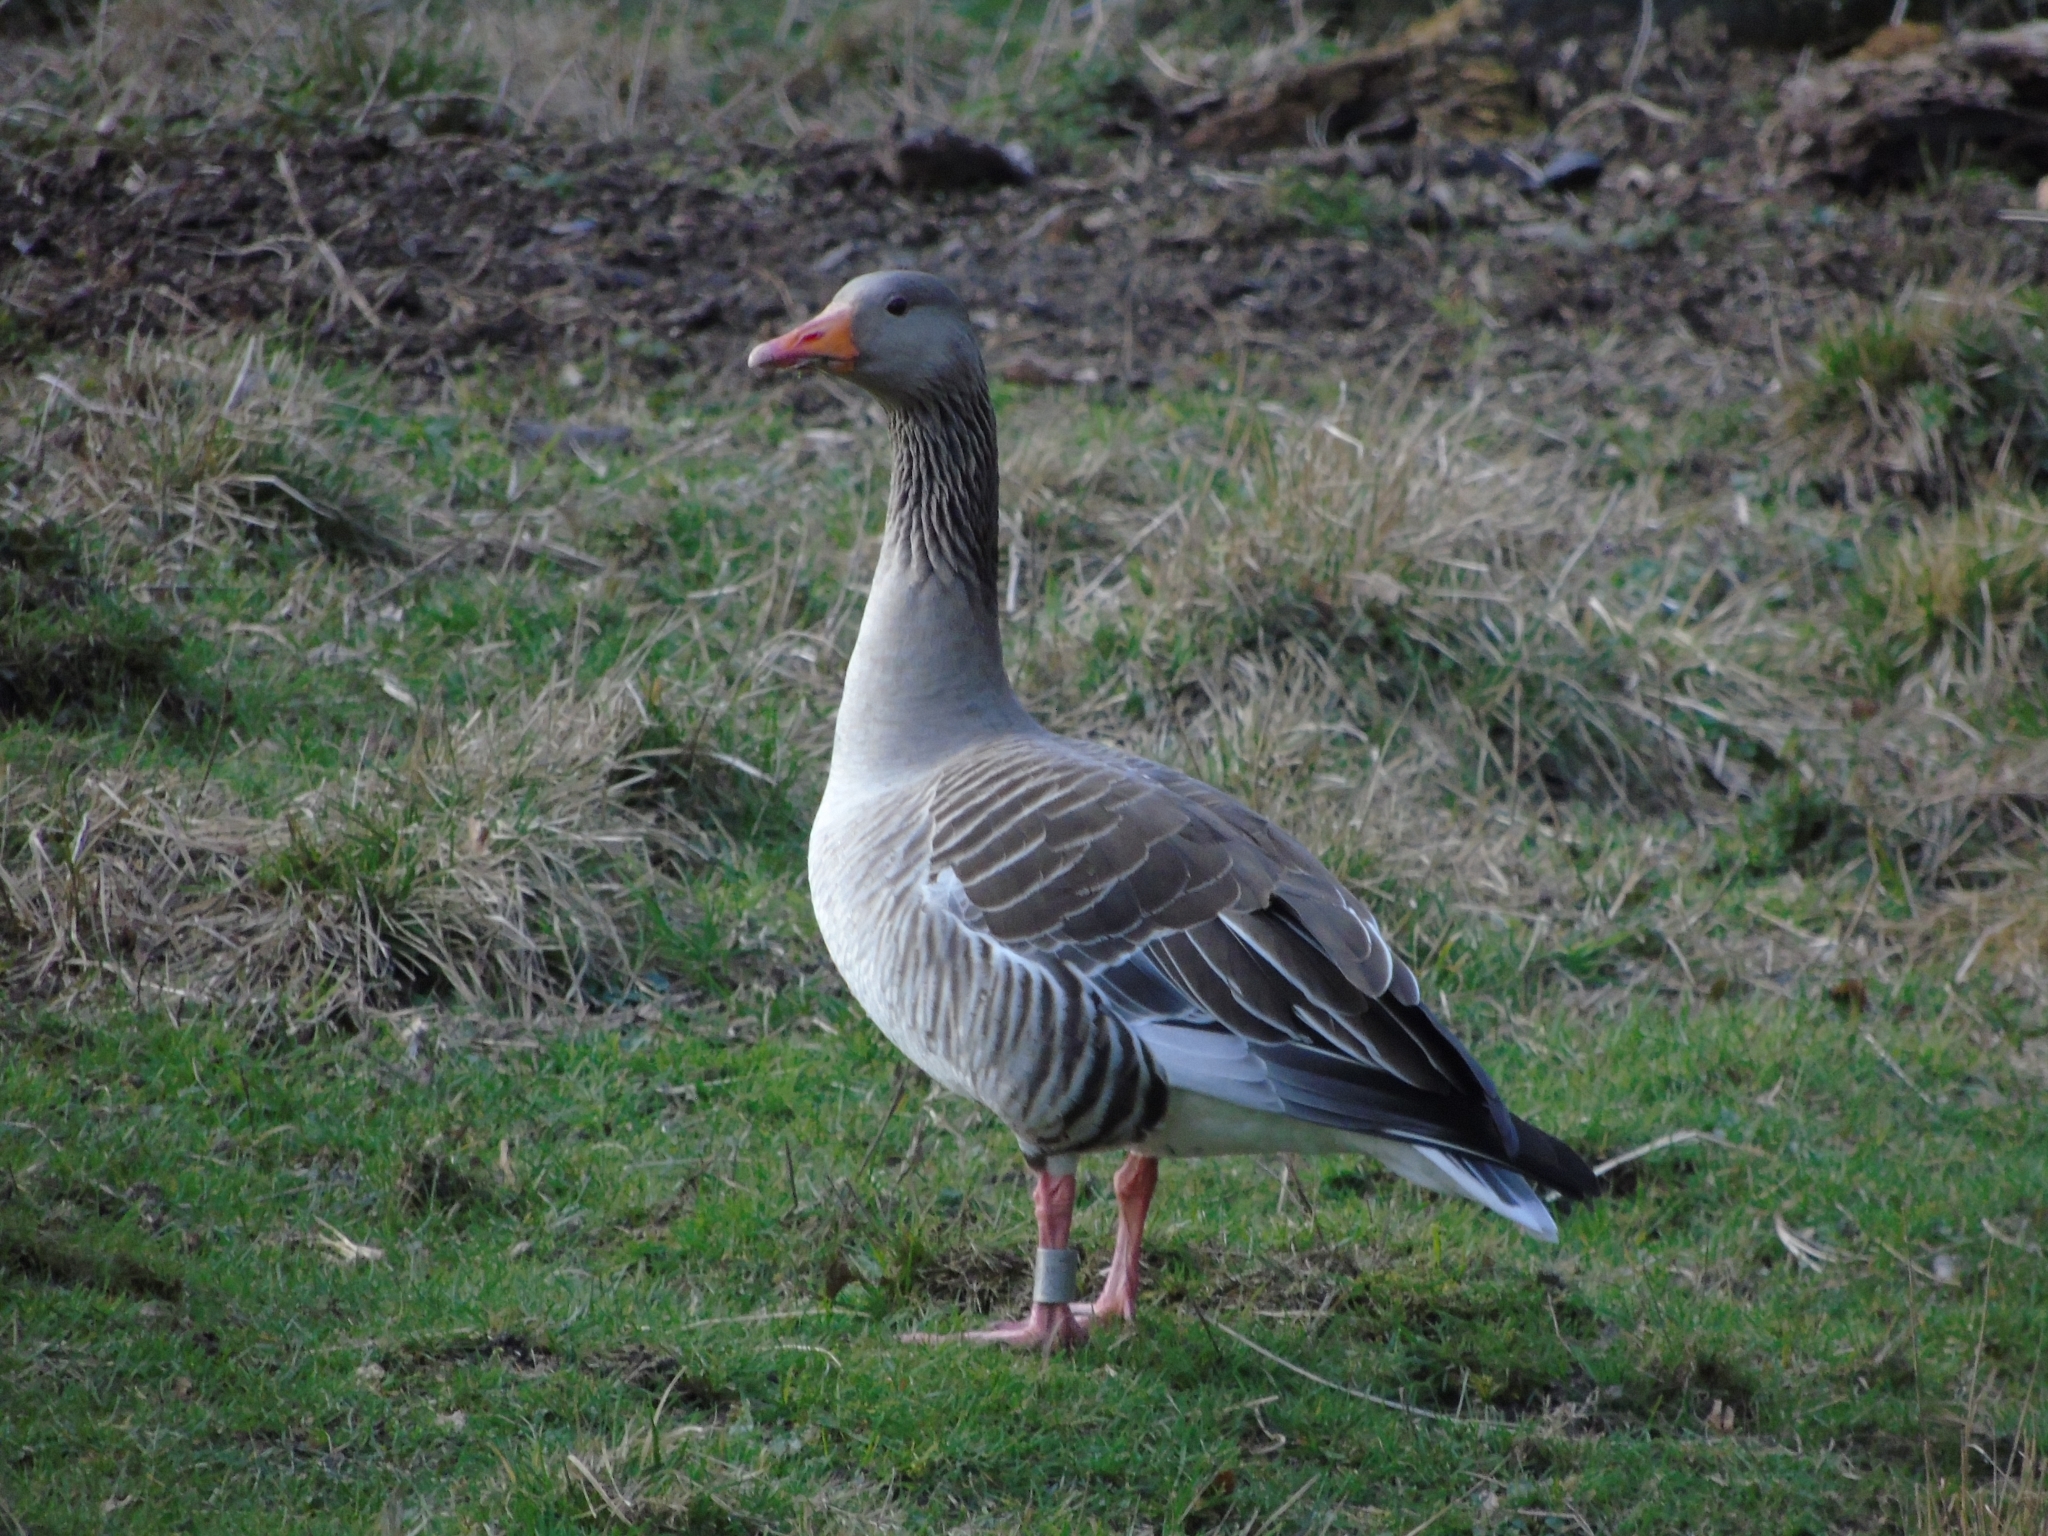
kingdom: Animalia
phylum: Chordata
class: Aves
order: Anseriformes
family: Anatidae
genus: Anser
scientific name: Anser anser
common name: Greylag goose
